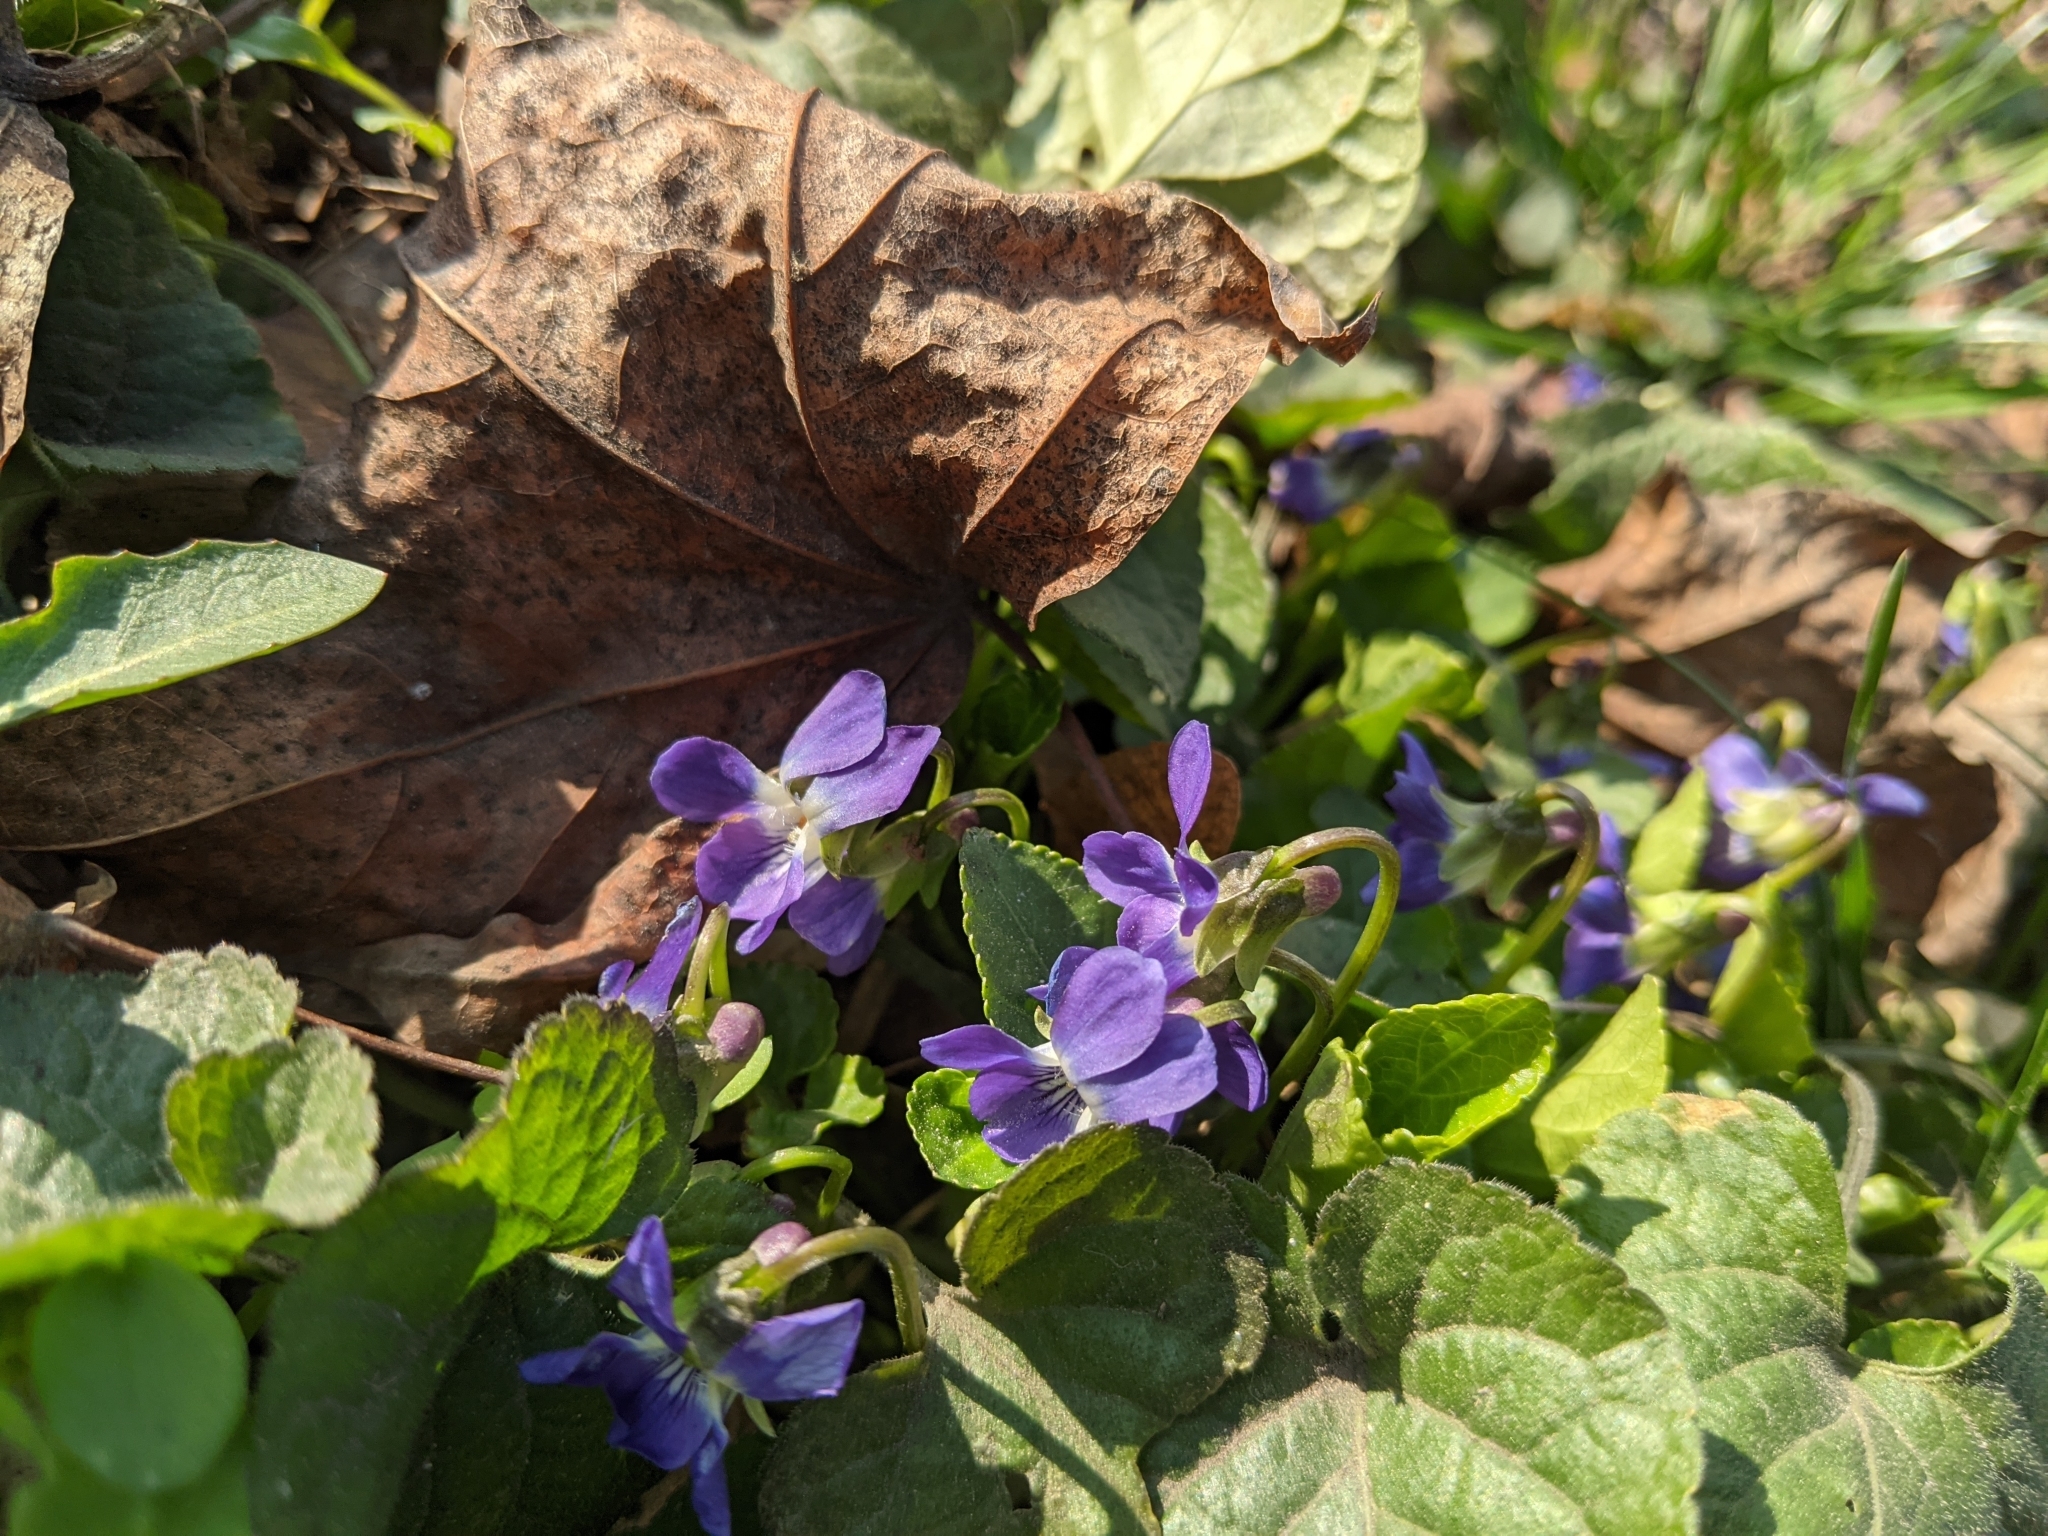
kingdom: Plantae
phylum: Tracheophyta
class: Magnoliopsida
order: Malpighiales
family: Violaceae
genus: Viola
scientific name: Viola odorata
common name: Sweet violet
